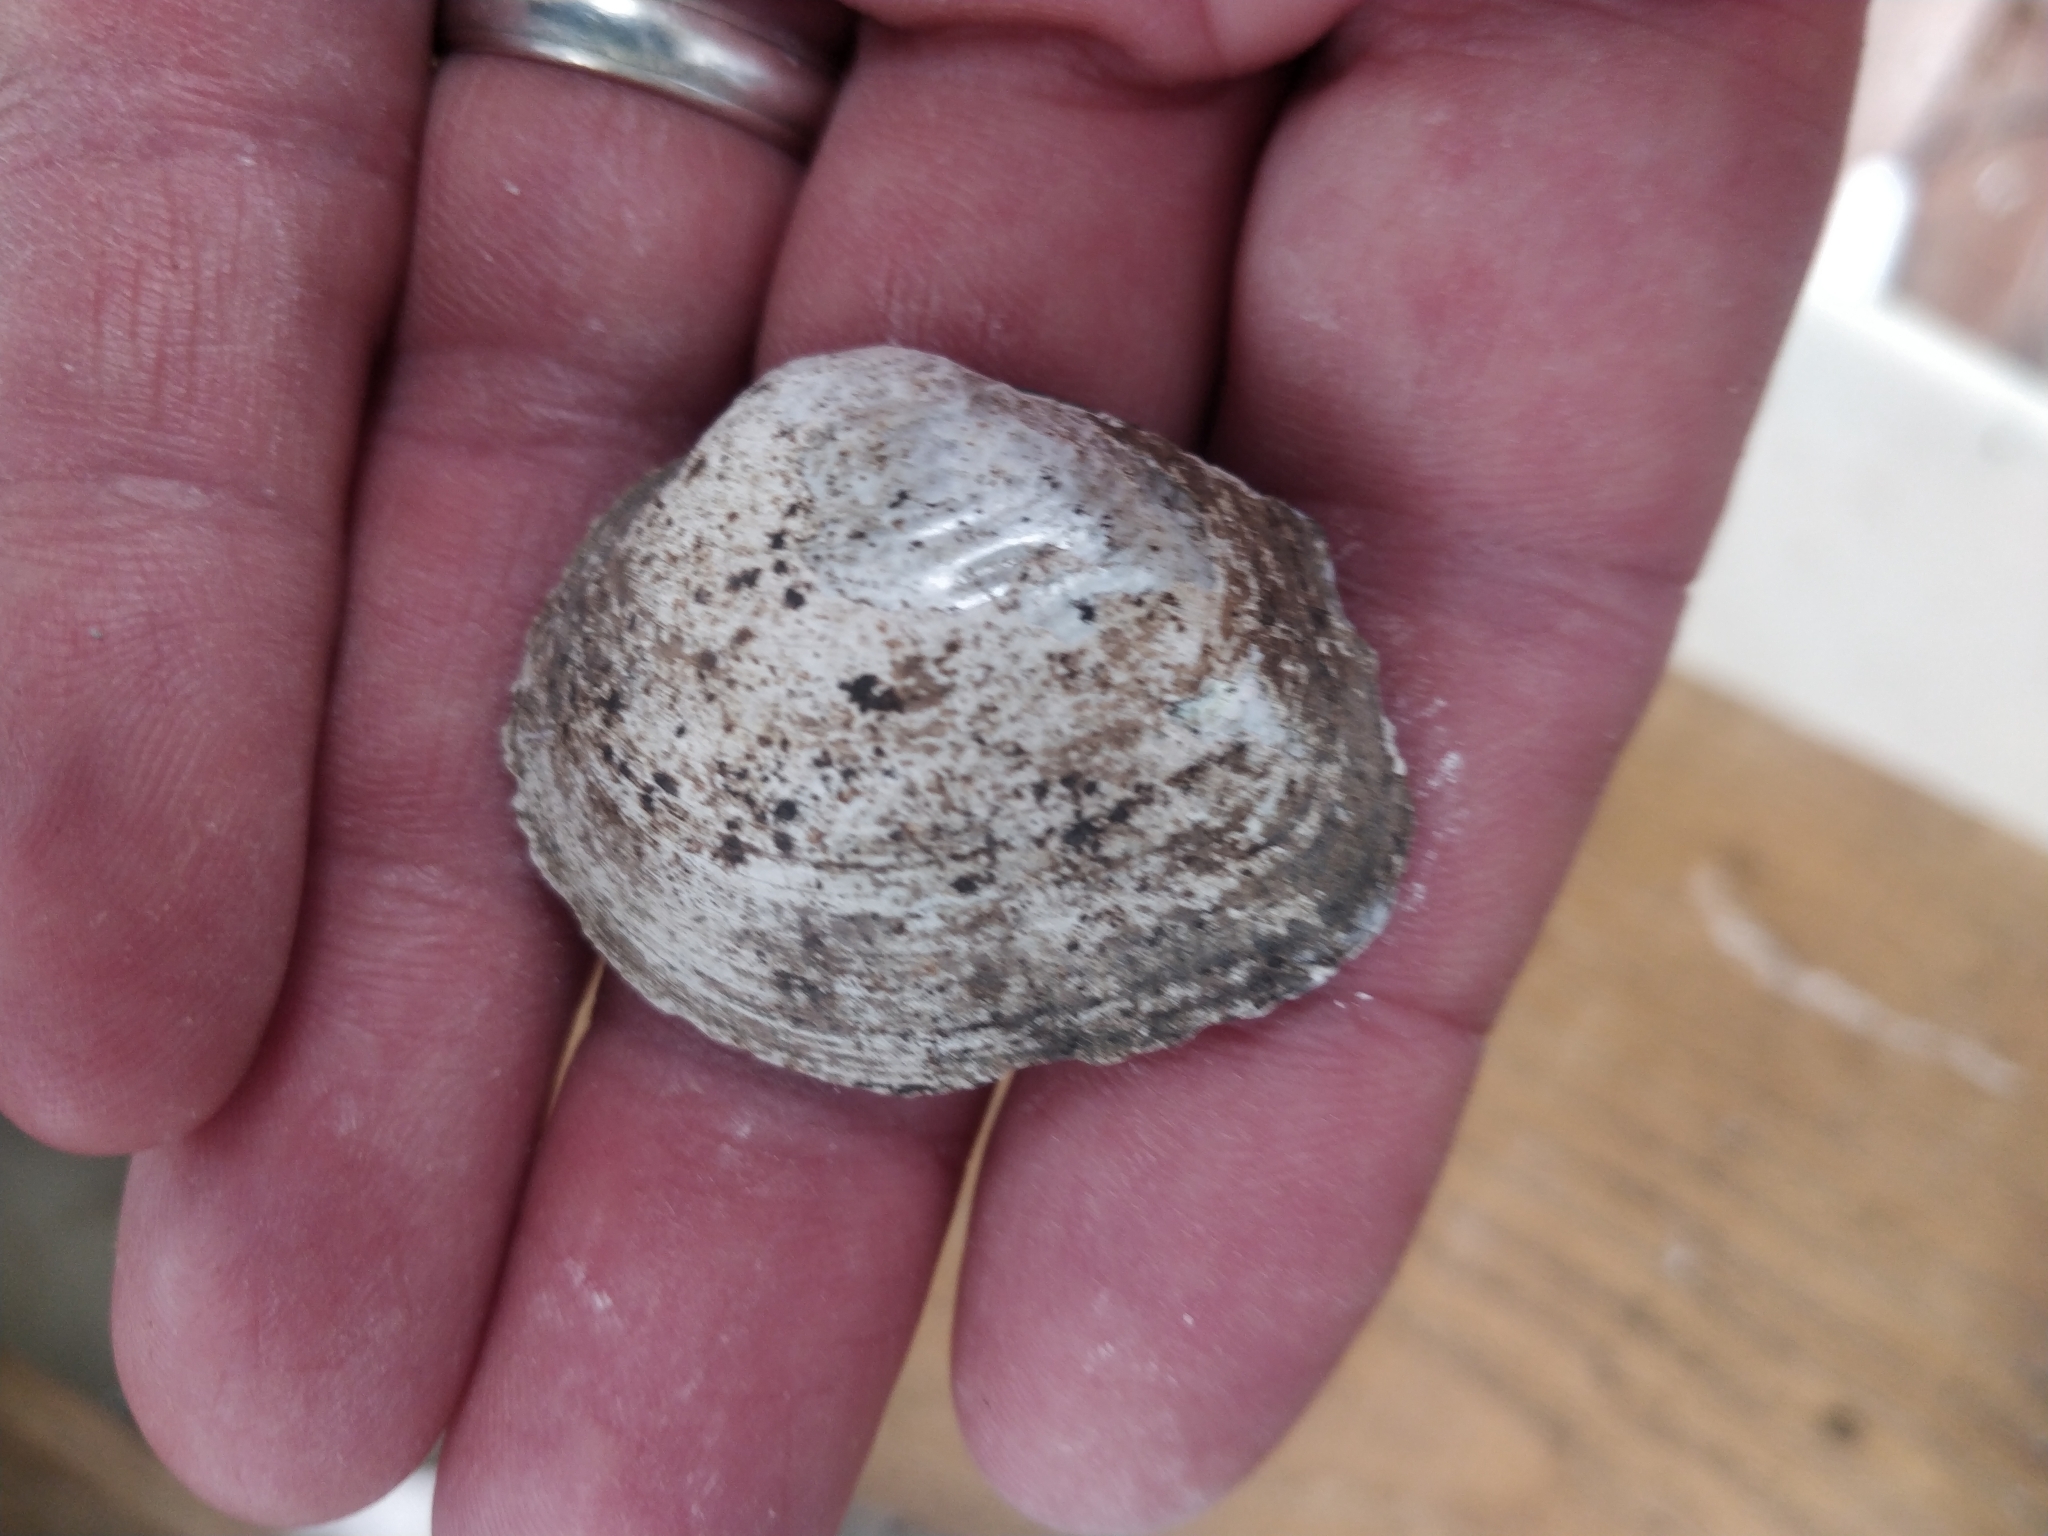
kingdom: Animalia
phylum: Mollusca
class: Bivalvia
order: Unionida
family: Unionidae
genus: Fusconaia
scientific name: Fusconaia flava
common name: Wabash pigtoe
